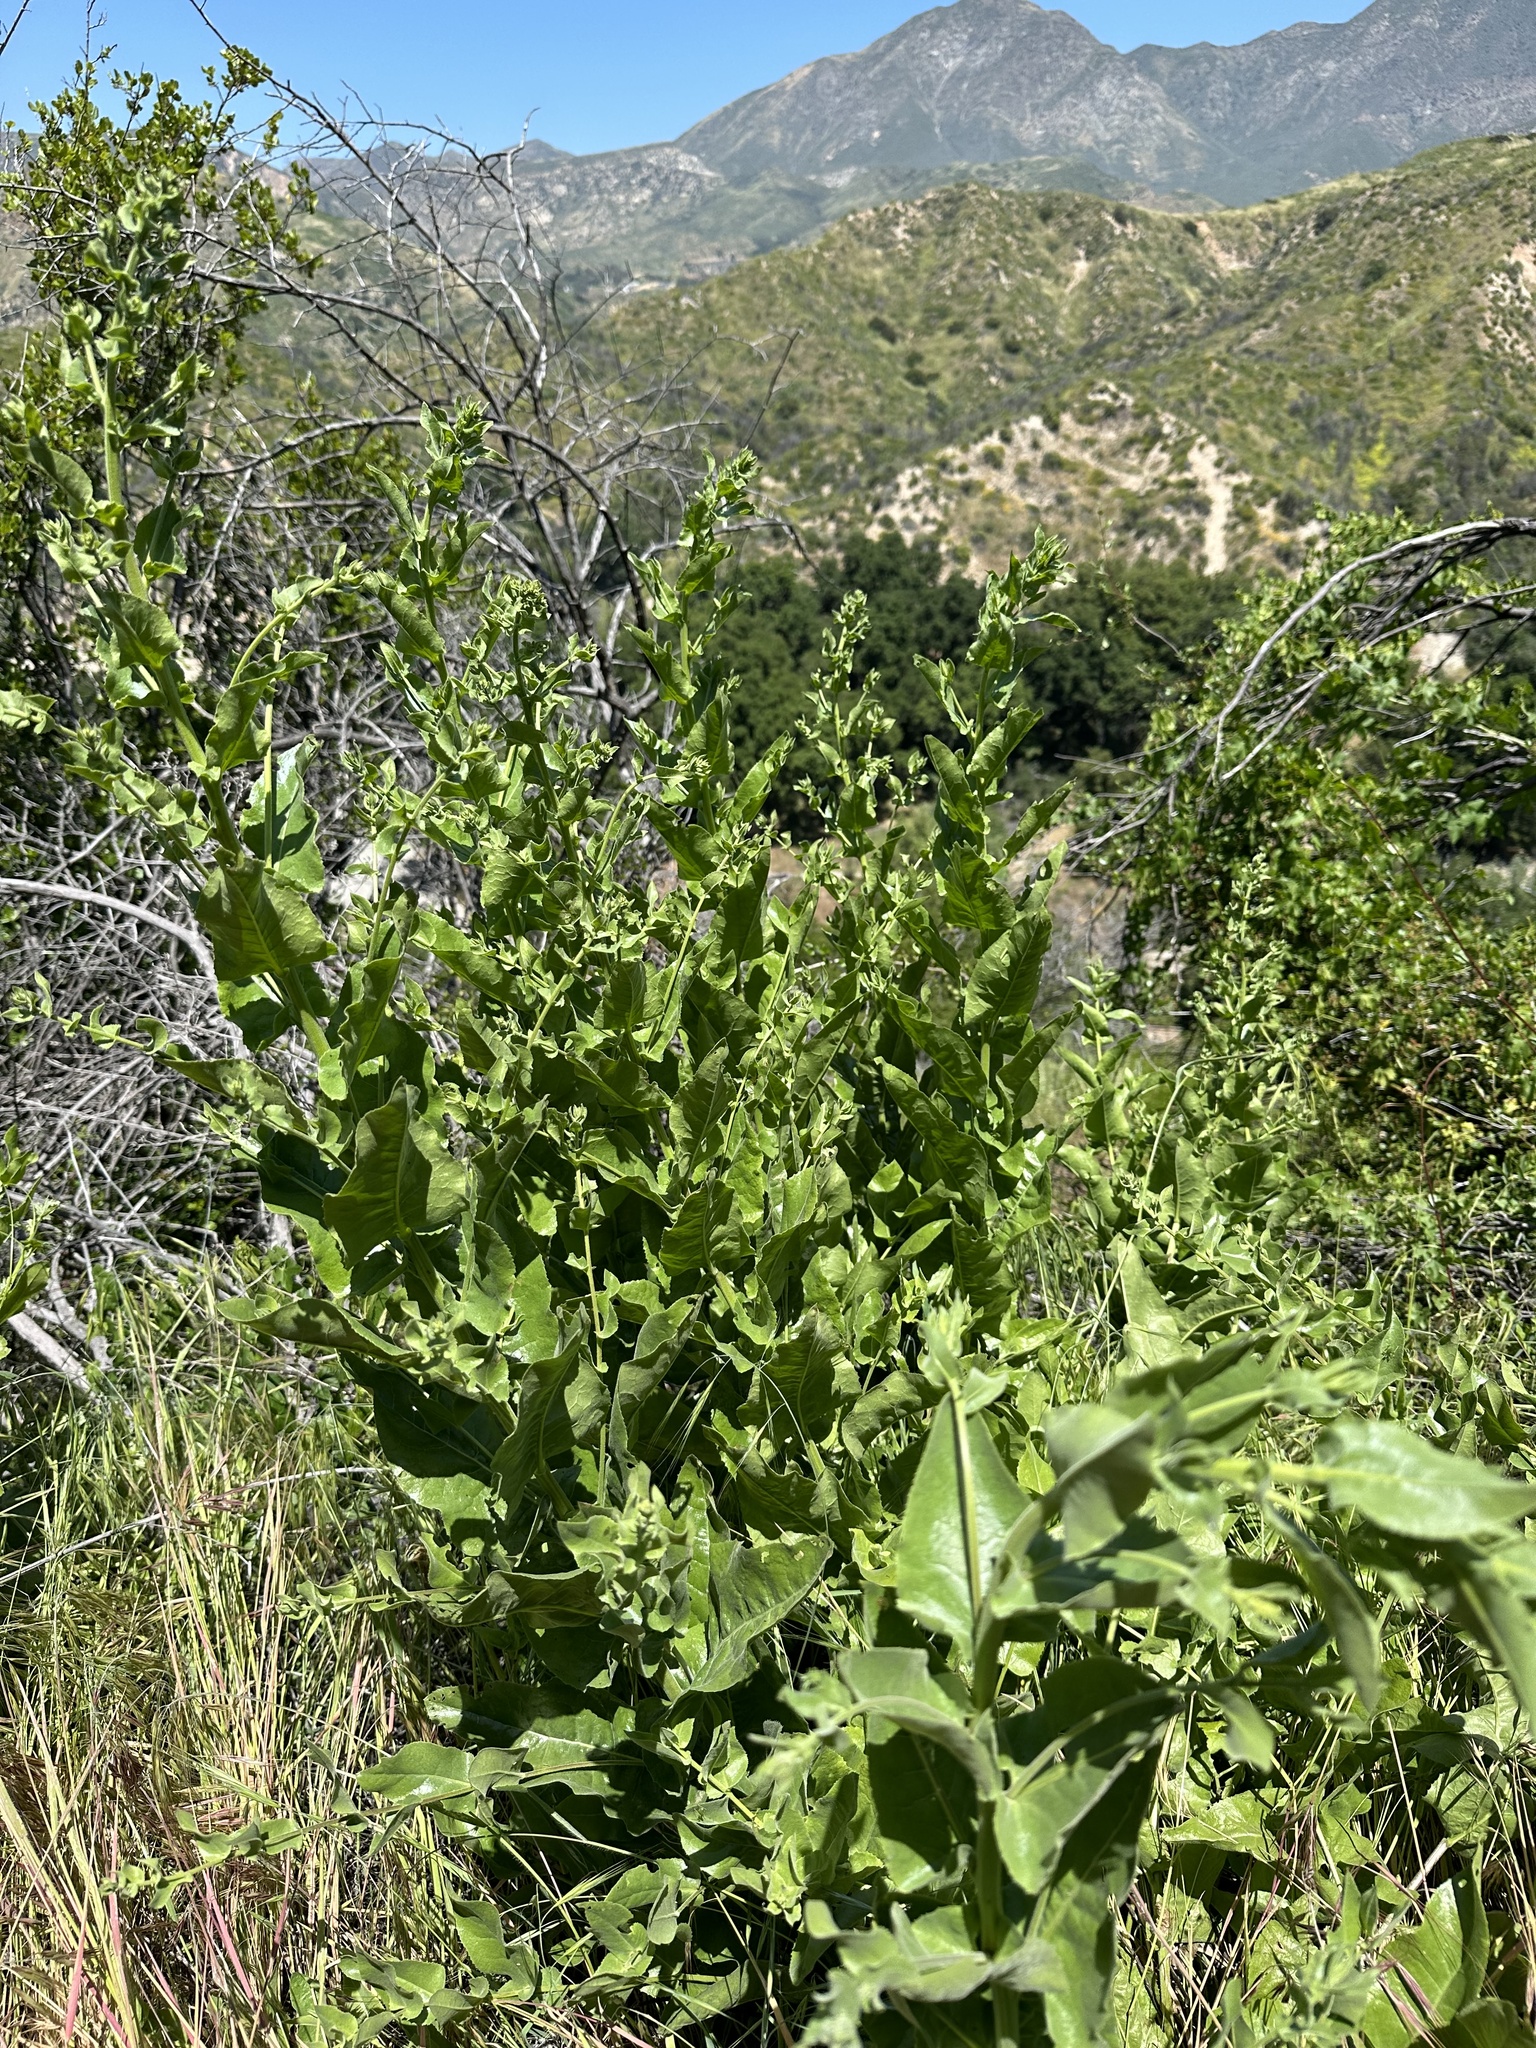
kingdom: Plantae
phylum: Tracheophyta
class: Magnoliopsida
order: Asterales
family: Asteraceae
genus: Acourtia
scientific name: Acourtia microcephala
